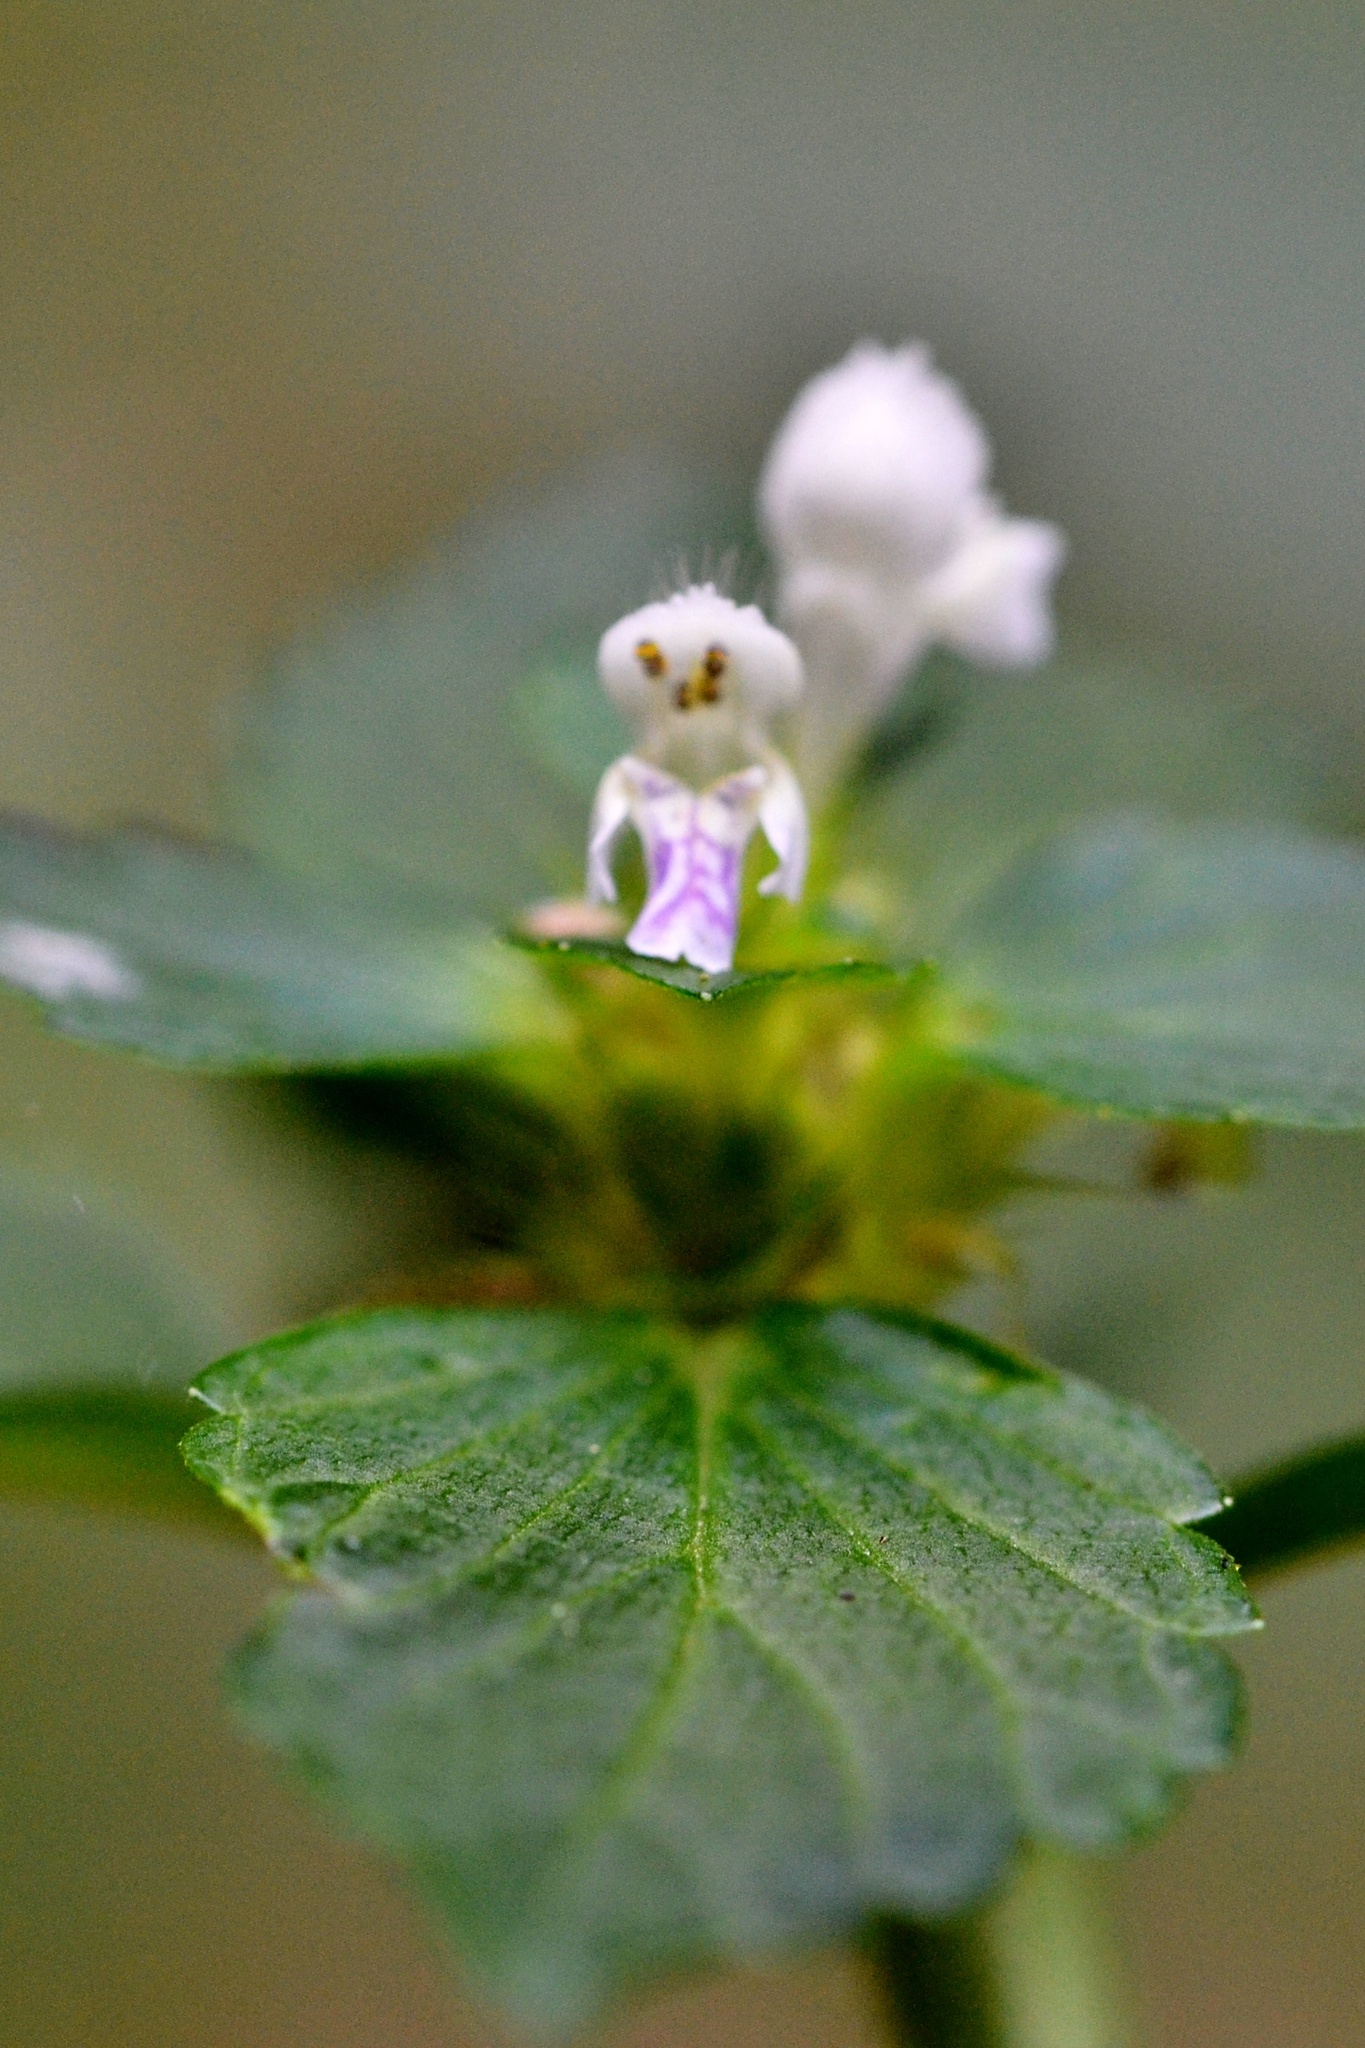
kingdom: Plantae
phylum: Tracheophyta
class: Magnoliopsida
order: Lamiales
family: Lamiaceae
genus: Galeopsis
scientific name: Galeopsis bifida
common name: Bifid hemp-nettle
